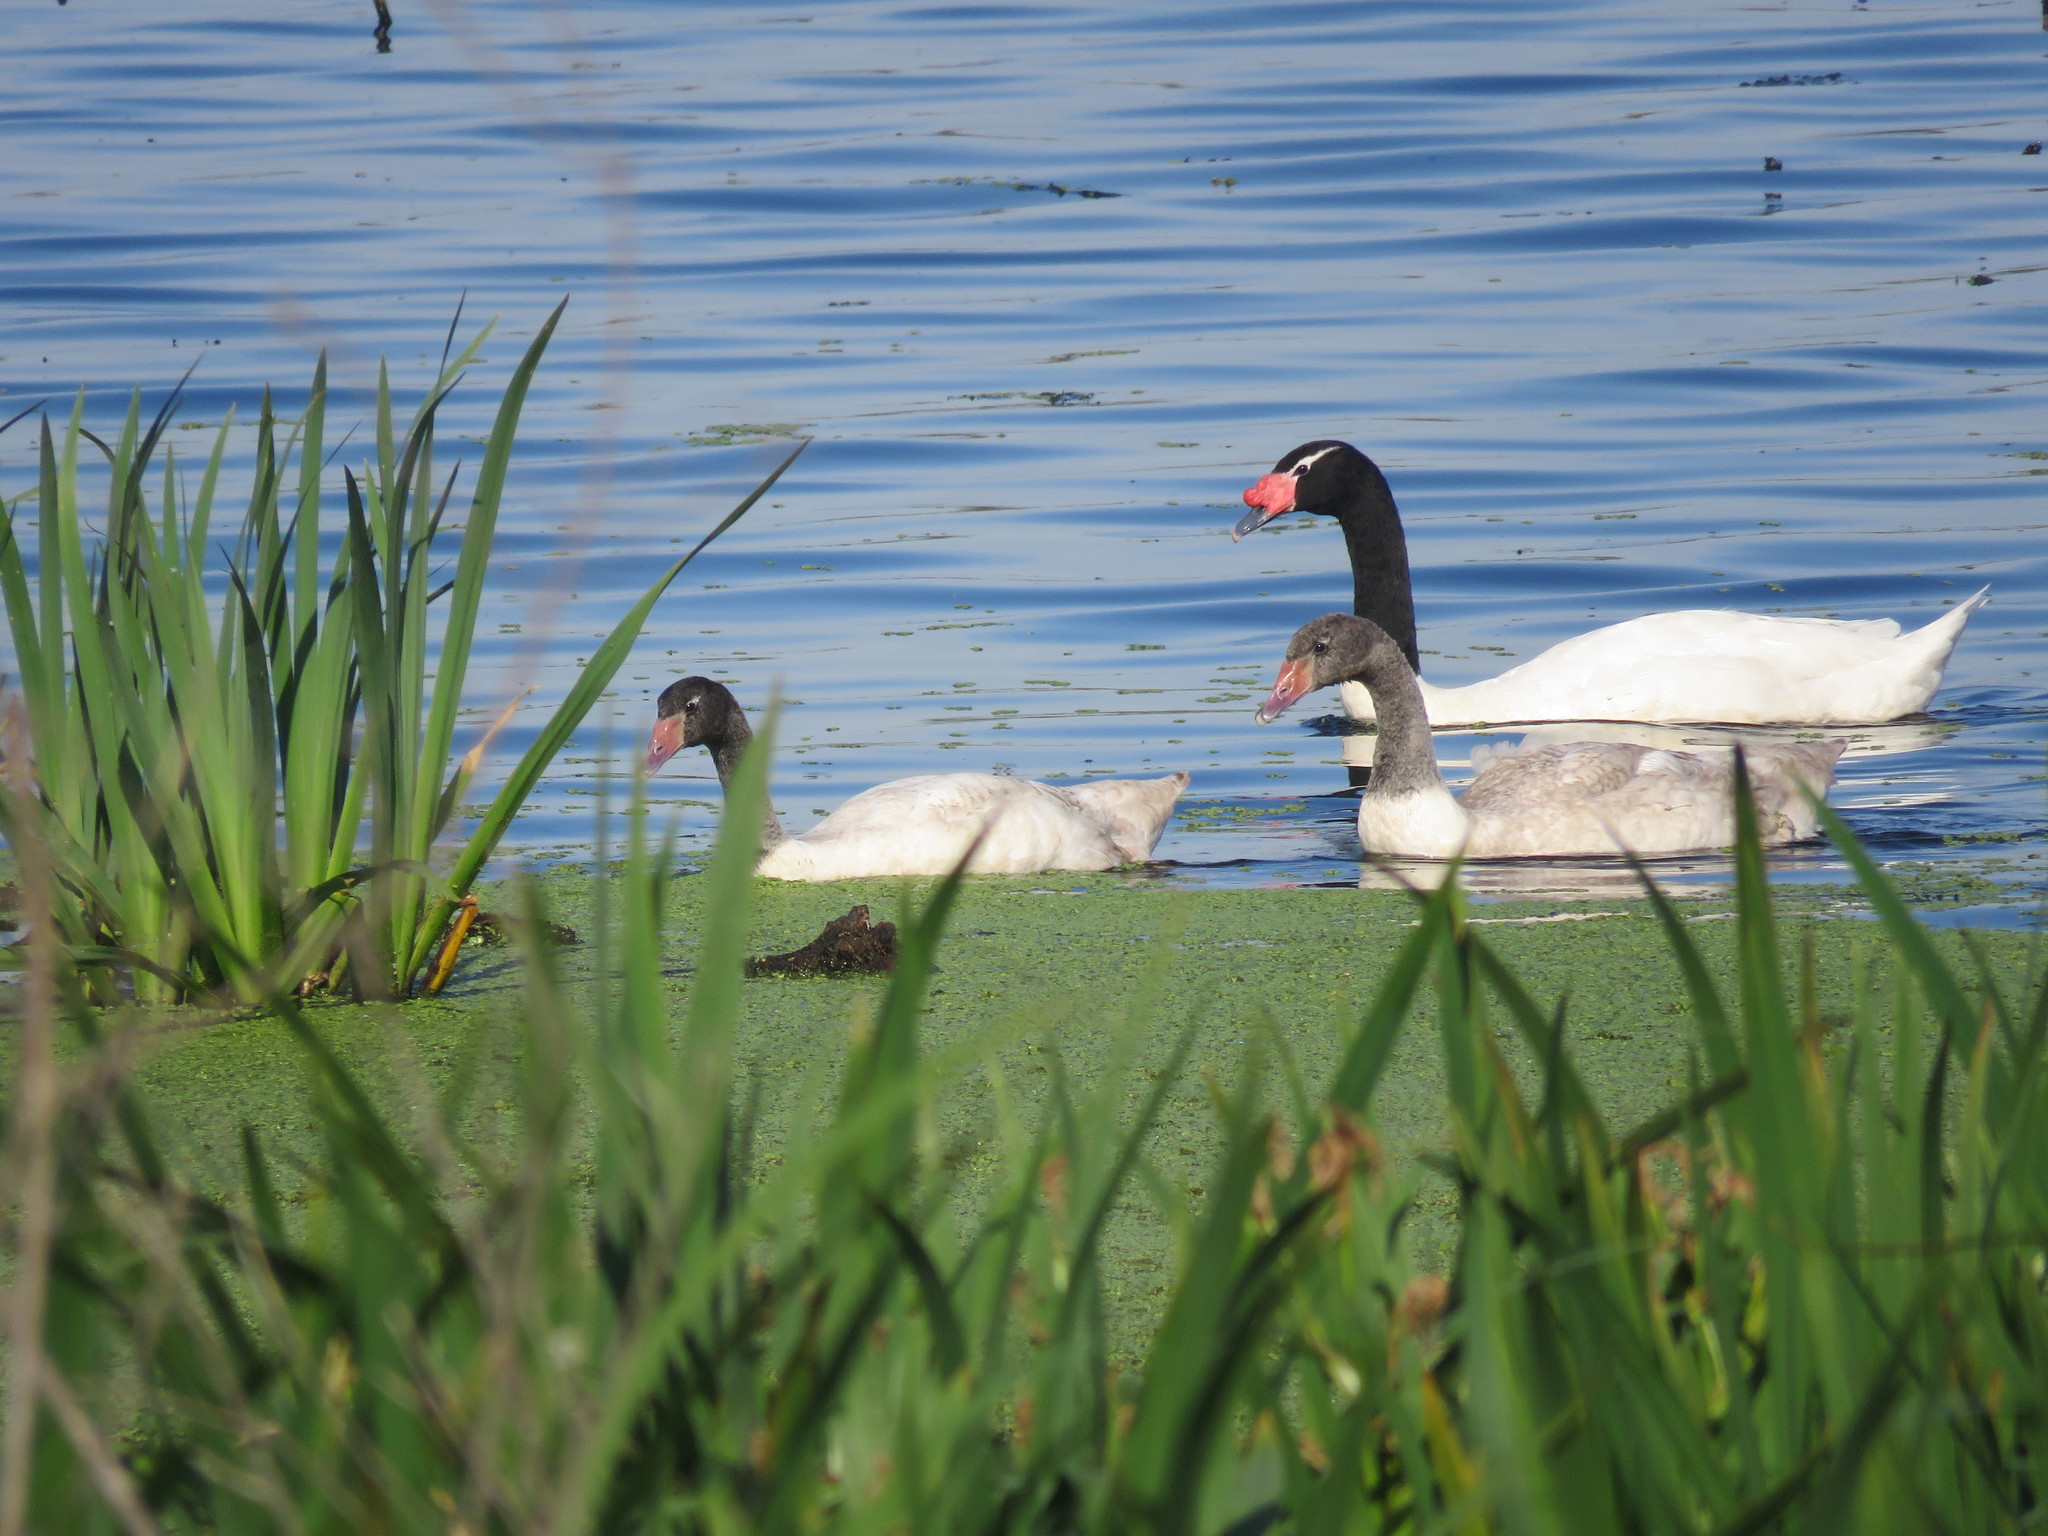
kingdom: Animalia
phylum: Chordata
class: Aves
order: Anseriformes
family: Anatidae
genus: Cygnus
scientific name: Cygnus melancoryphus
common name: Black-necked swan
